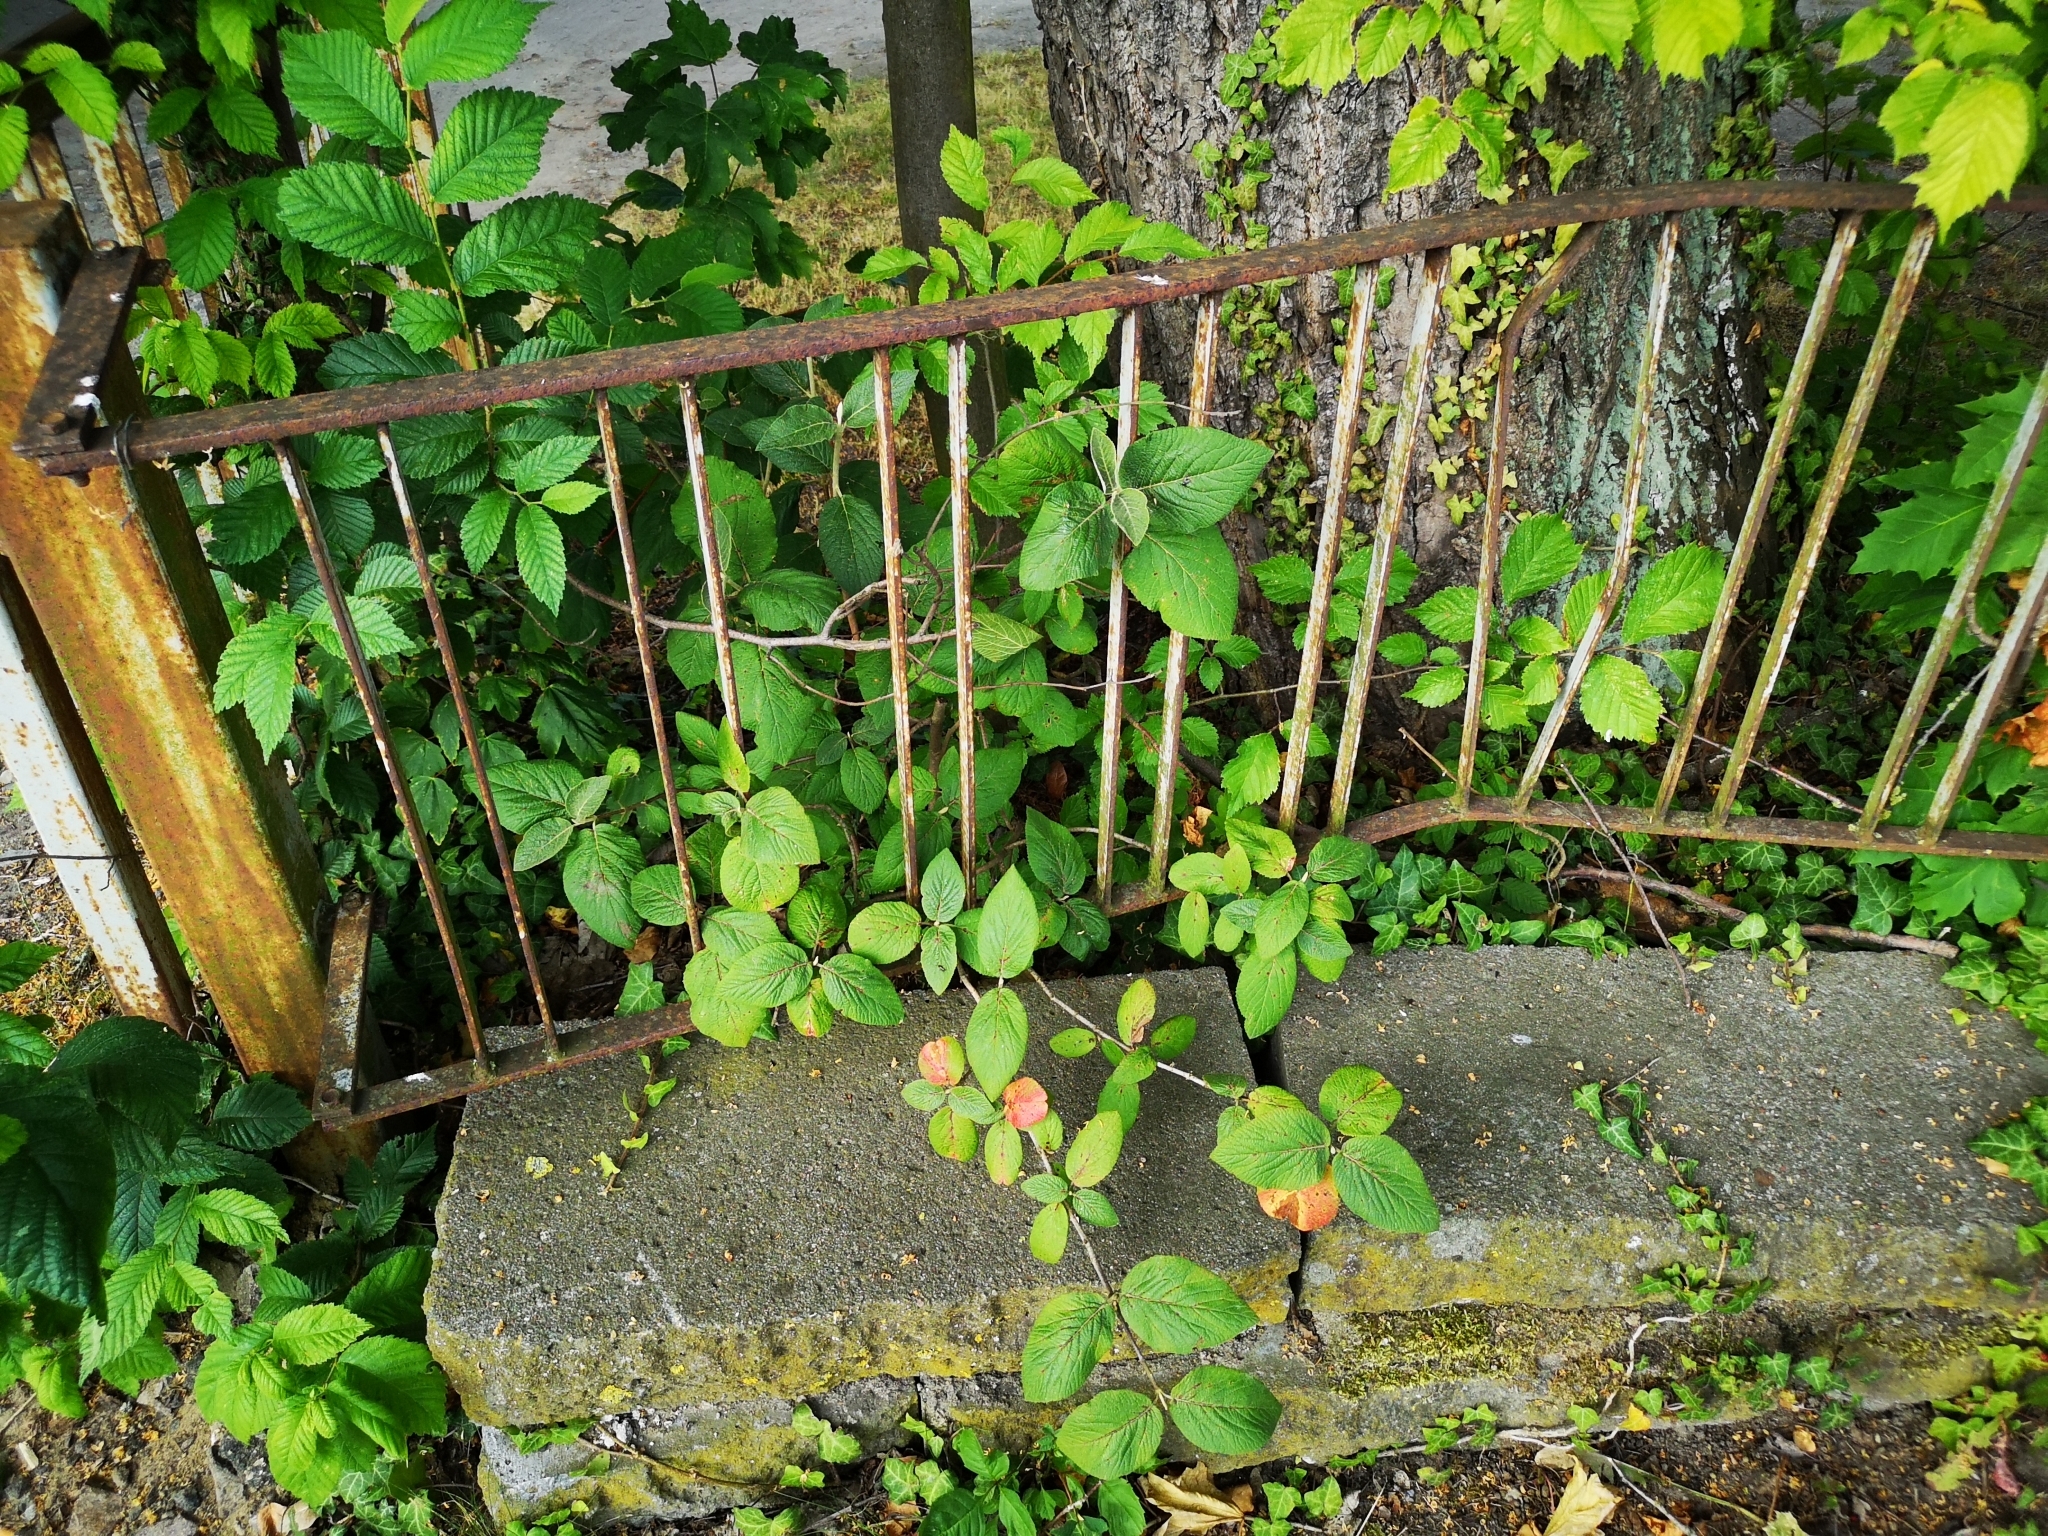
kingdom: Plantae
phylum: Tracheophyta
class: Magnoliopsida
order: Dipsacales
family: Viburnaceae
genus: Viburnum
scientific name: Viburnum lantana
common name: Wayfaring tree
